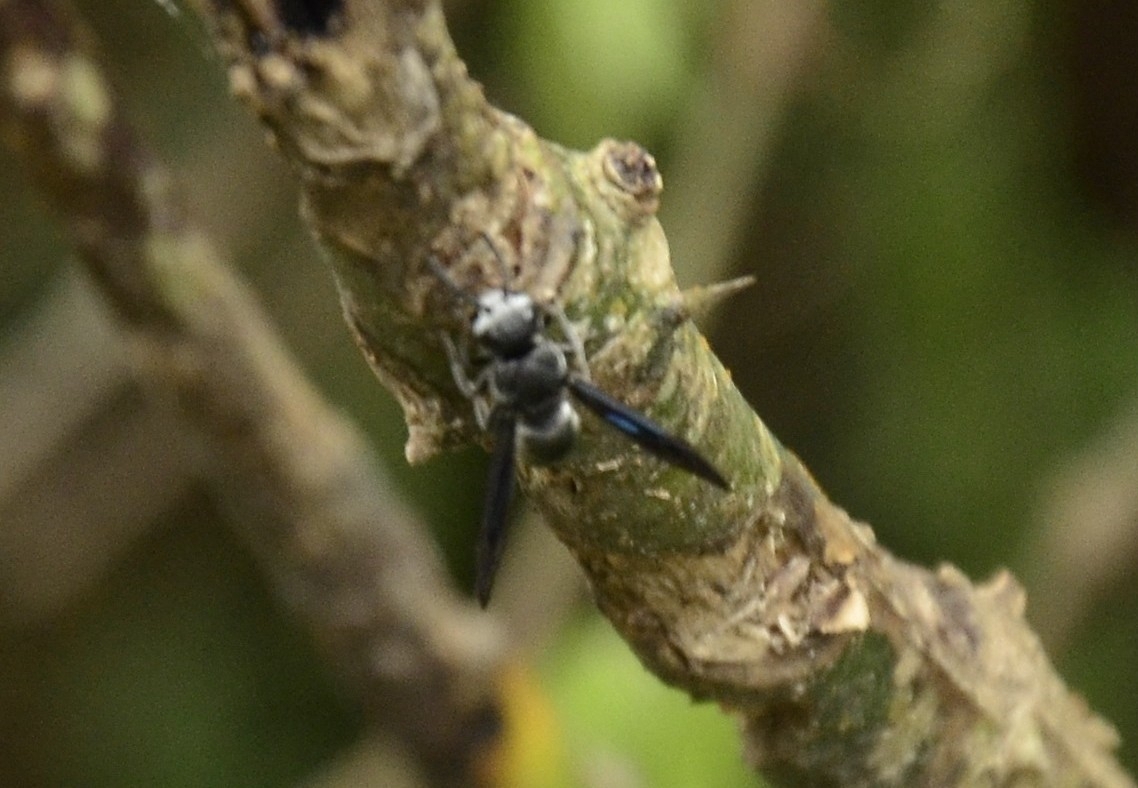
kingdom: Animalia
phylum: Arthropoda
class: Insecta
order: Hymenoptera
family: Eumenidae
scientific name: Eumenidae
